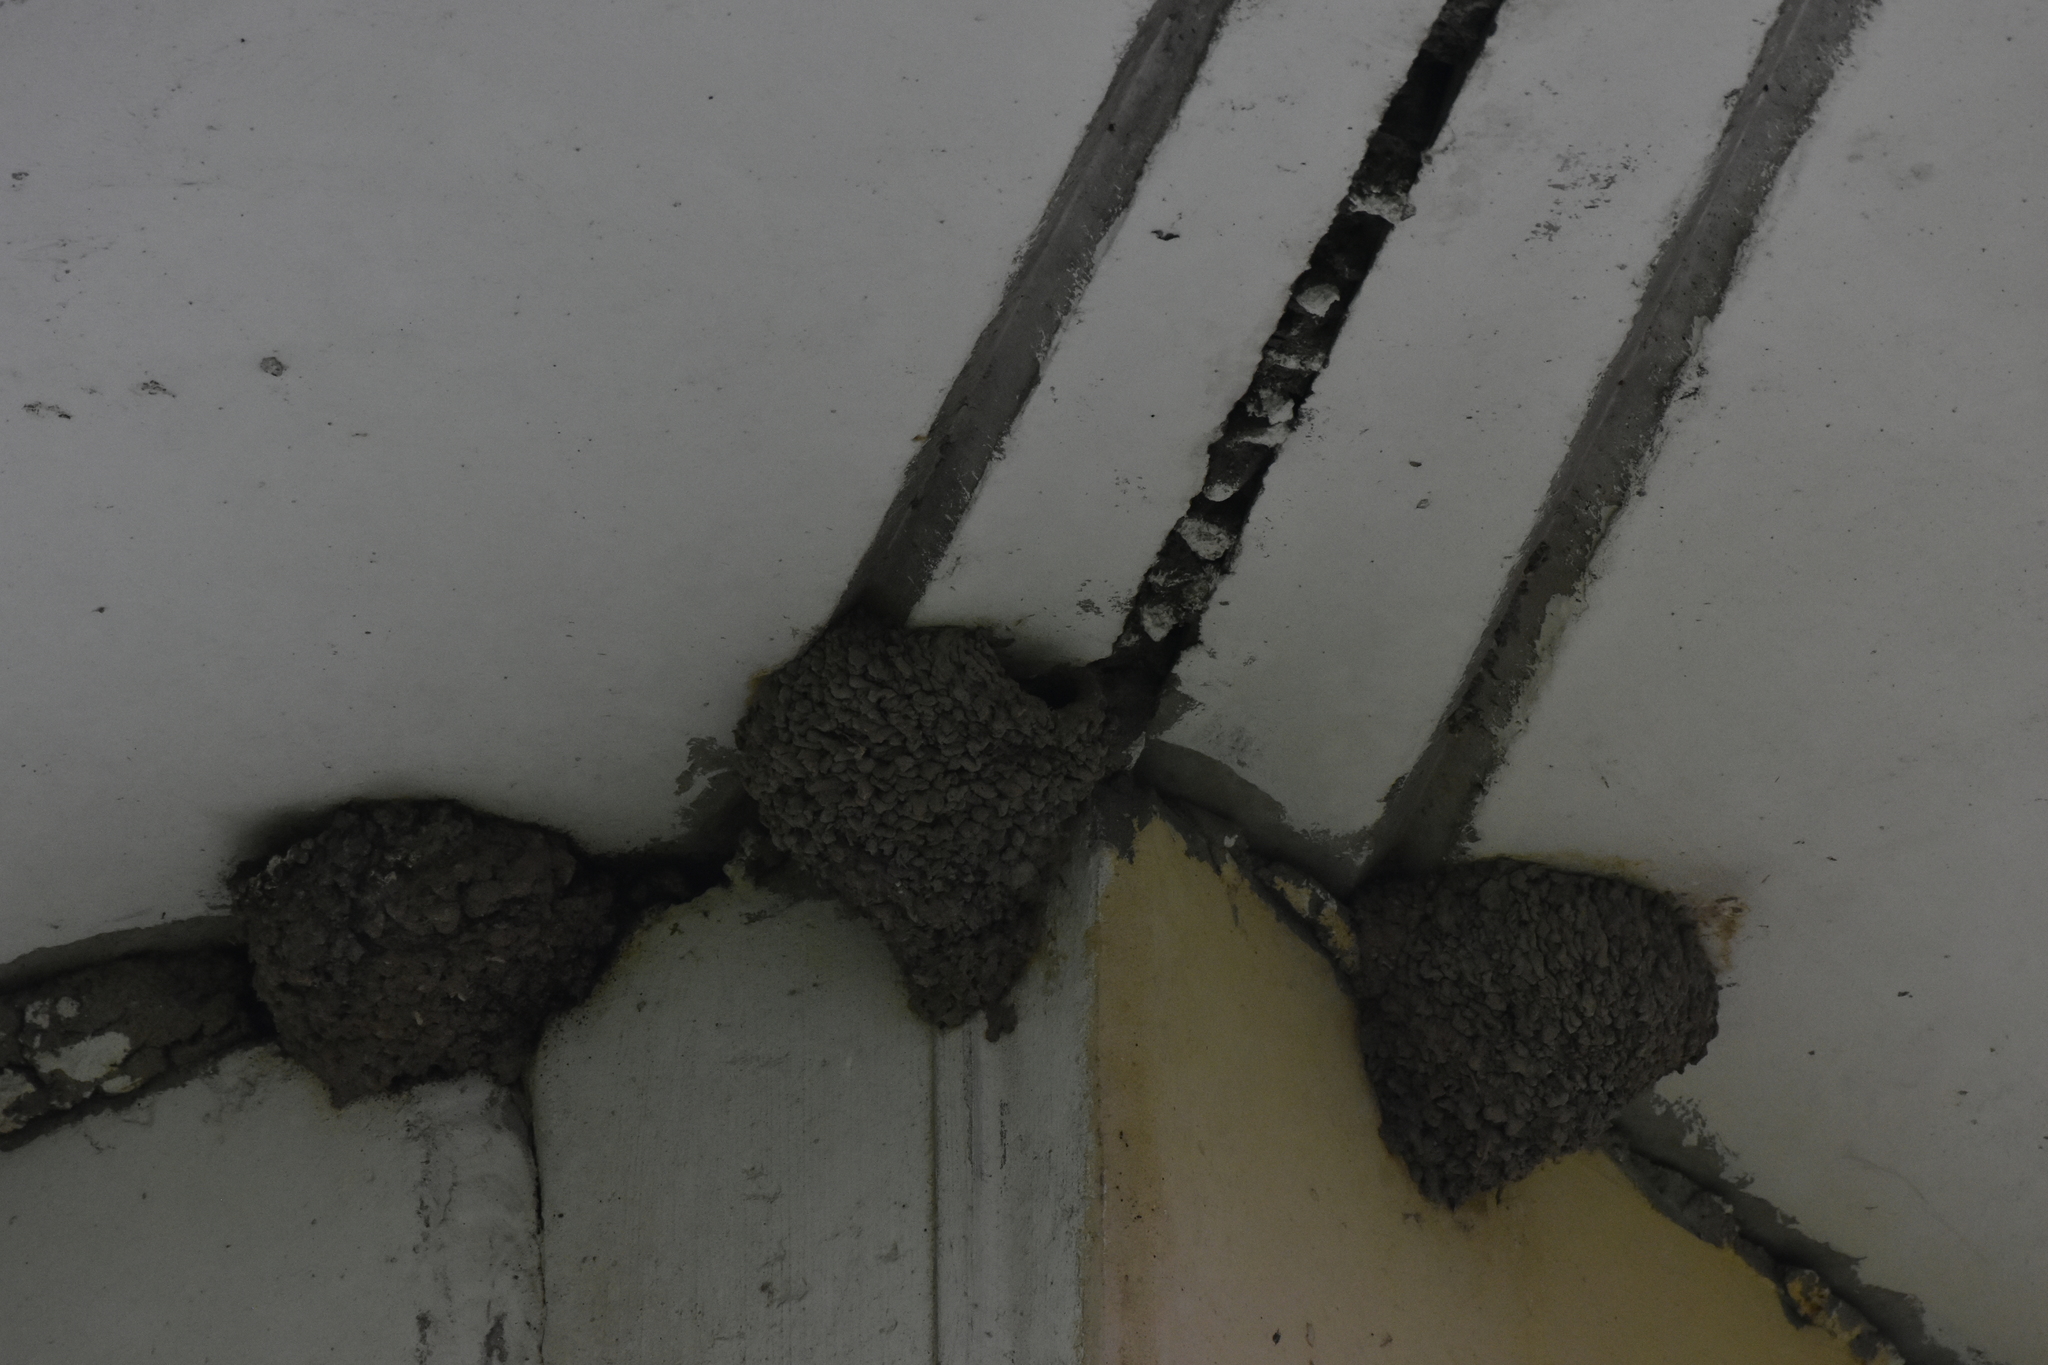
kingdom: Animalia
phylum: Chordata
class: Aves
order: Passeriformes
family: Hirundinidae
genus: Delichon
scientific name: Delichon urbicum
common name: Common house martin
